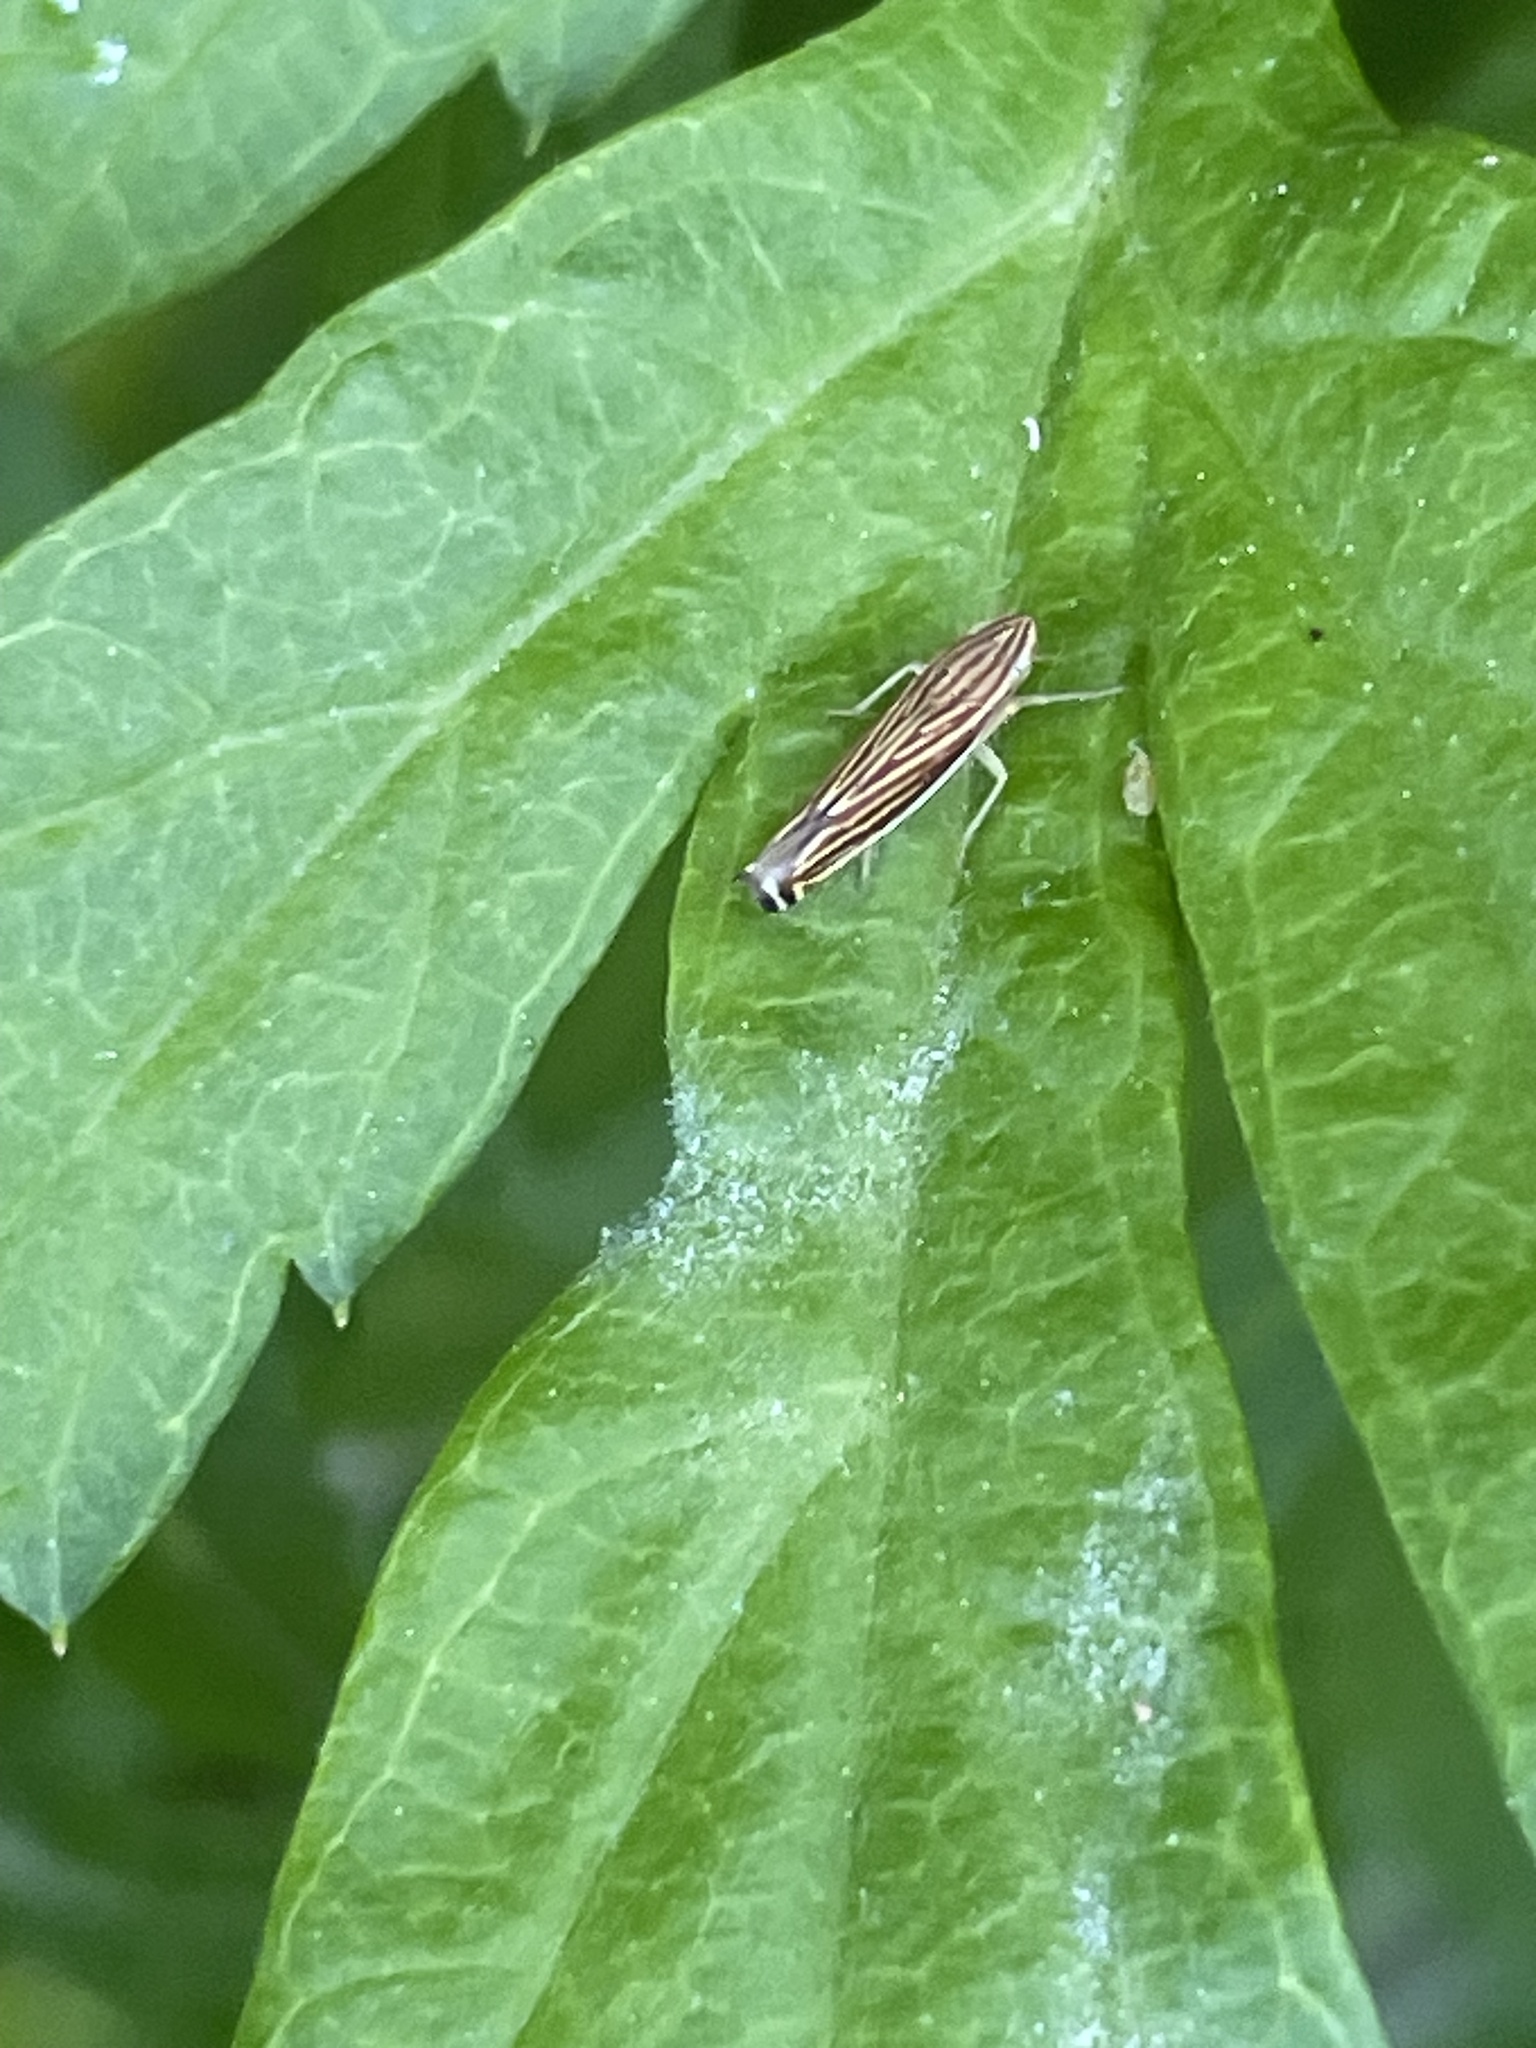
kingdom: Animalia
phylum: Arthropoda
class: Insecta
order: Hemiptera
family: Cicadellidae
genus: Sibovia
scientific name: Sibovia occatoria
